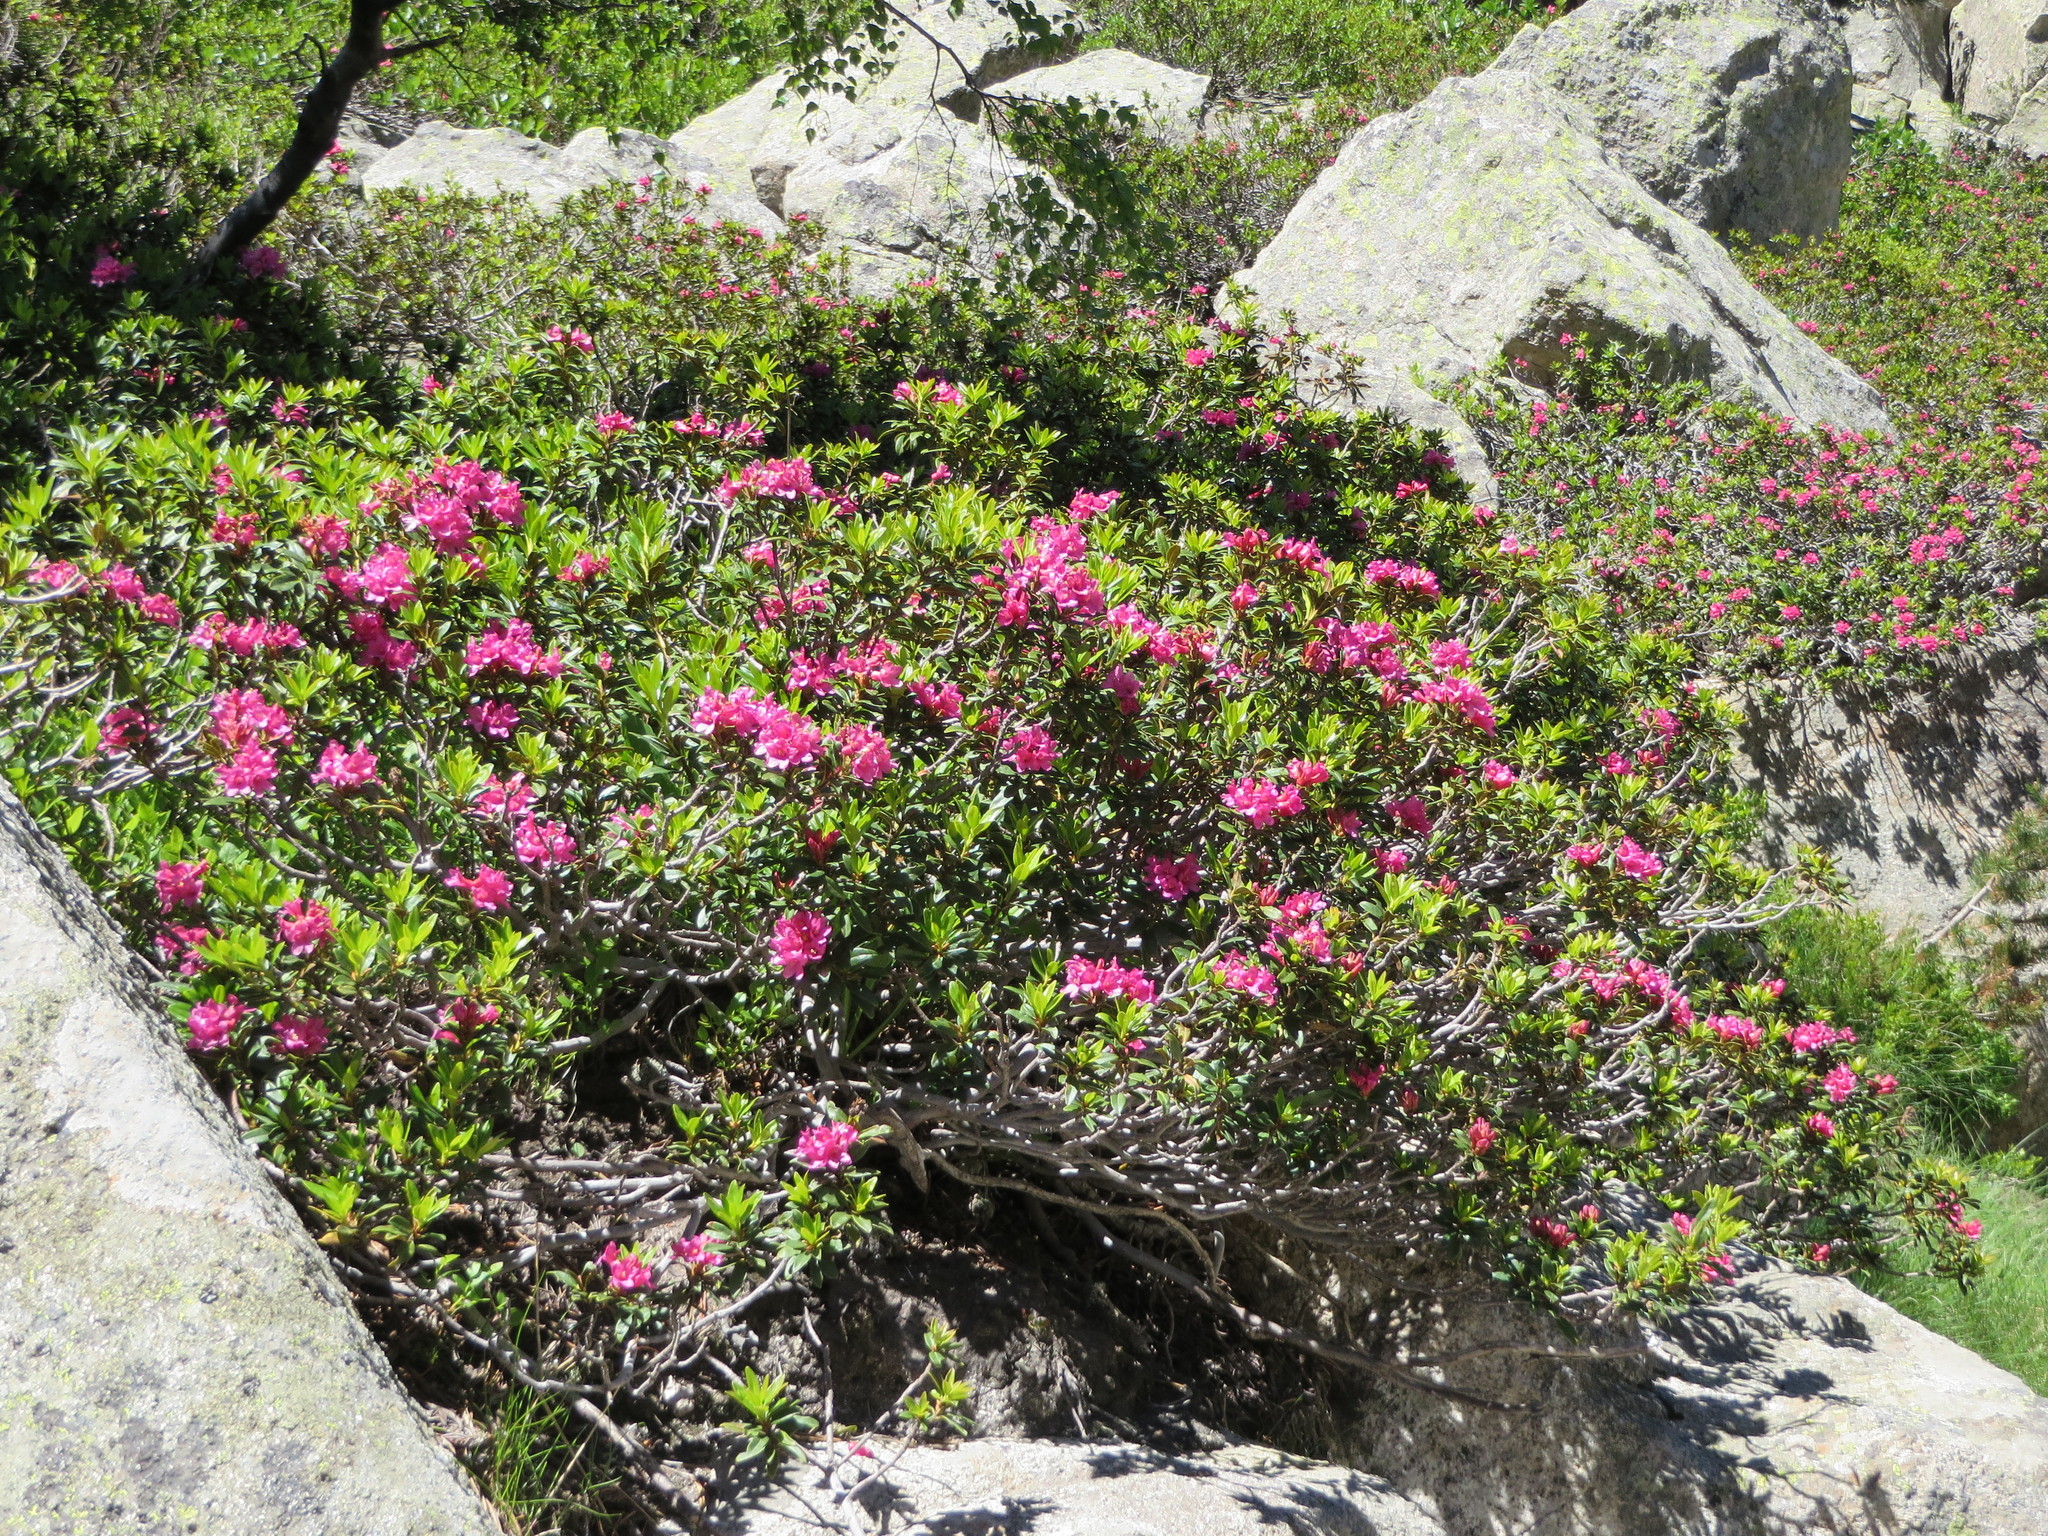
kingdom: Plantae
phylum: Tracheophyta
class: Magnoliopsida
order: Ericales
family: Ericaceae
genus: Rhododendron
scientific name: Rhododendron ferrugineum
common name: Alpenrose
